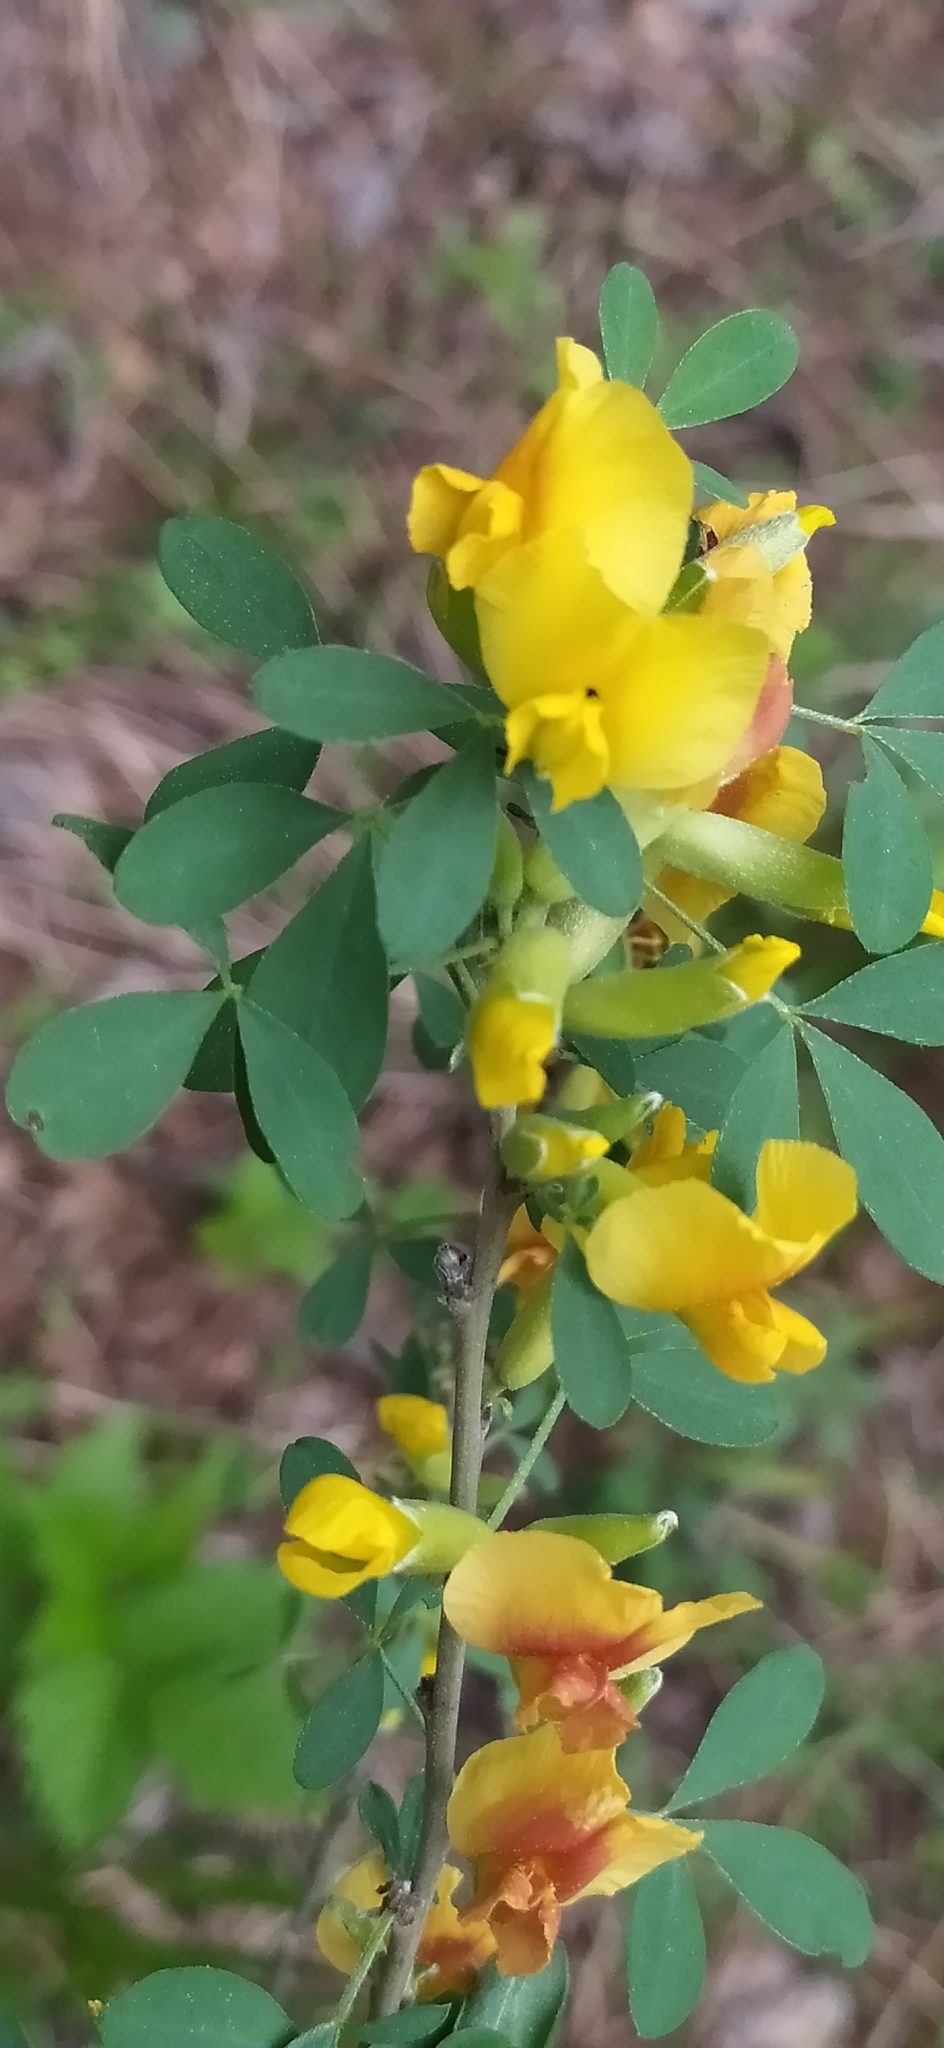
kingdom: Plantae
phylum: Tracheophyta
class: Magnoliopsida
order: Fabales
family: Fabaceae
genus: Chamaecytisus
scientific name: Chamaecytisus ruthenicus
